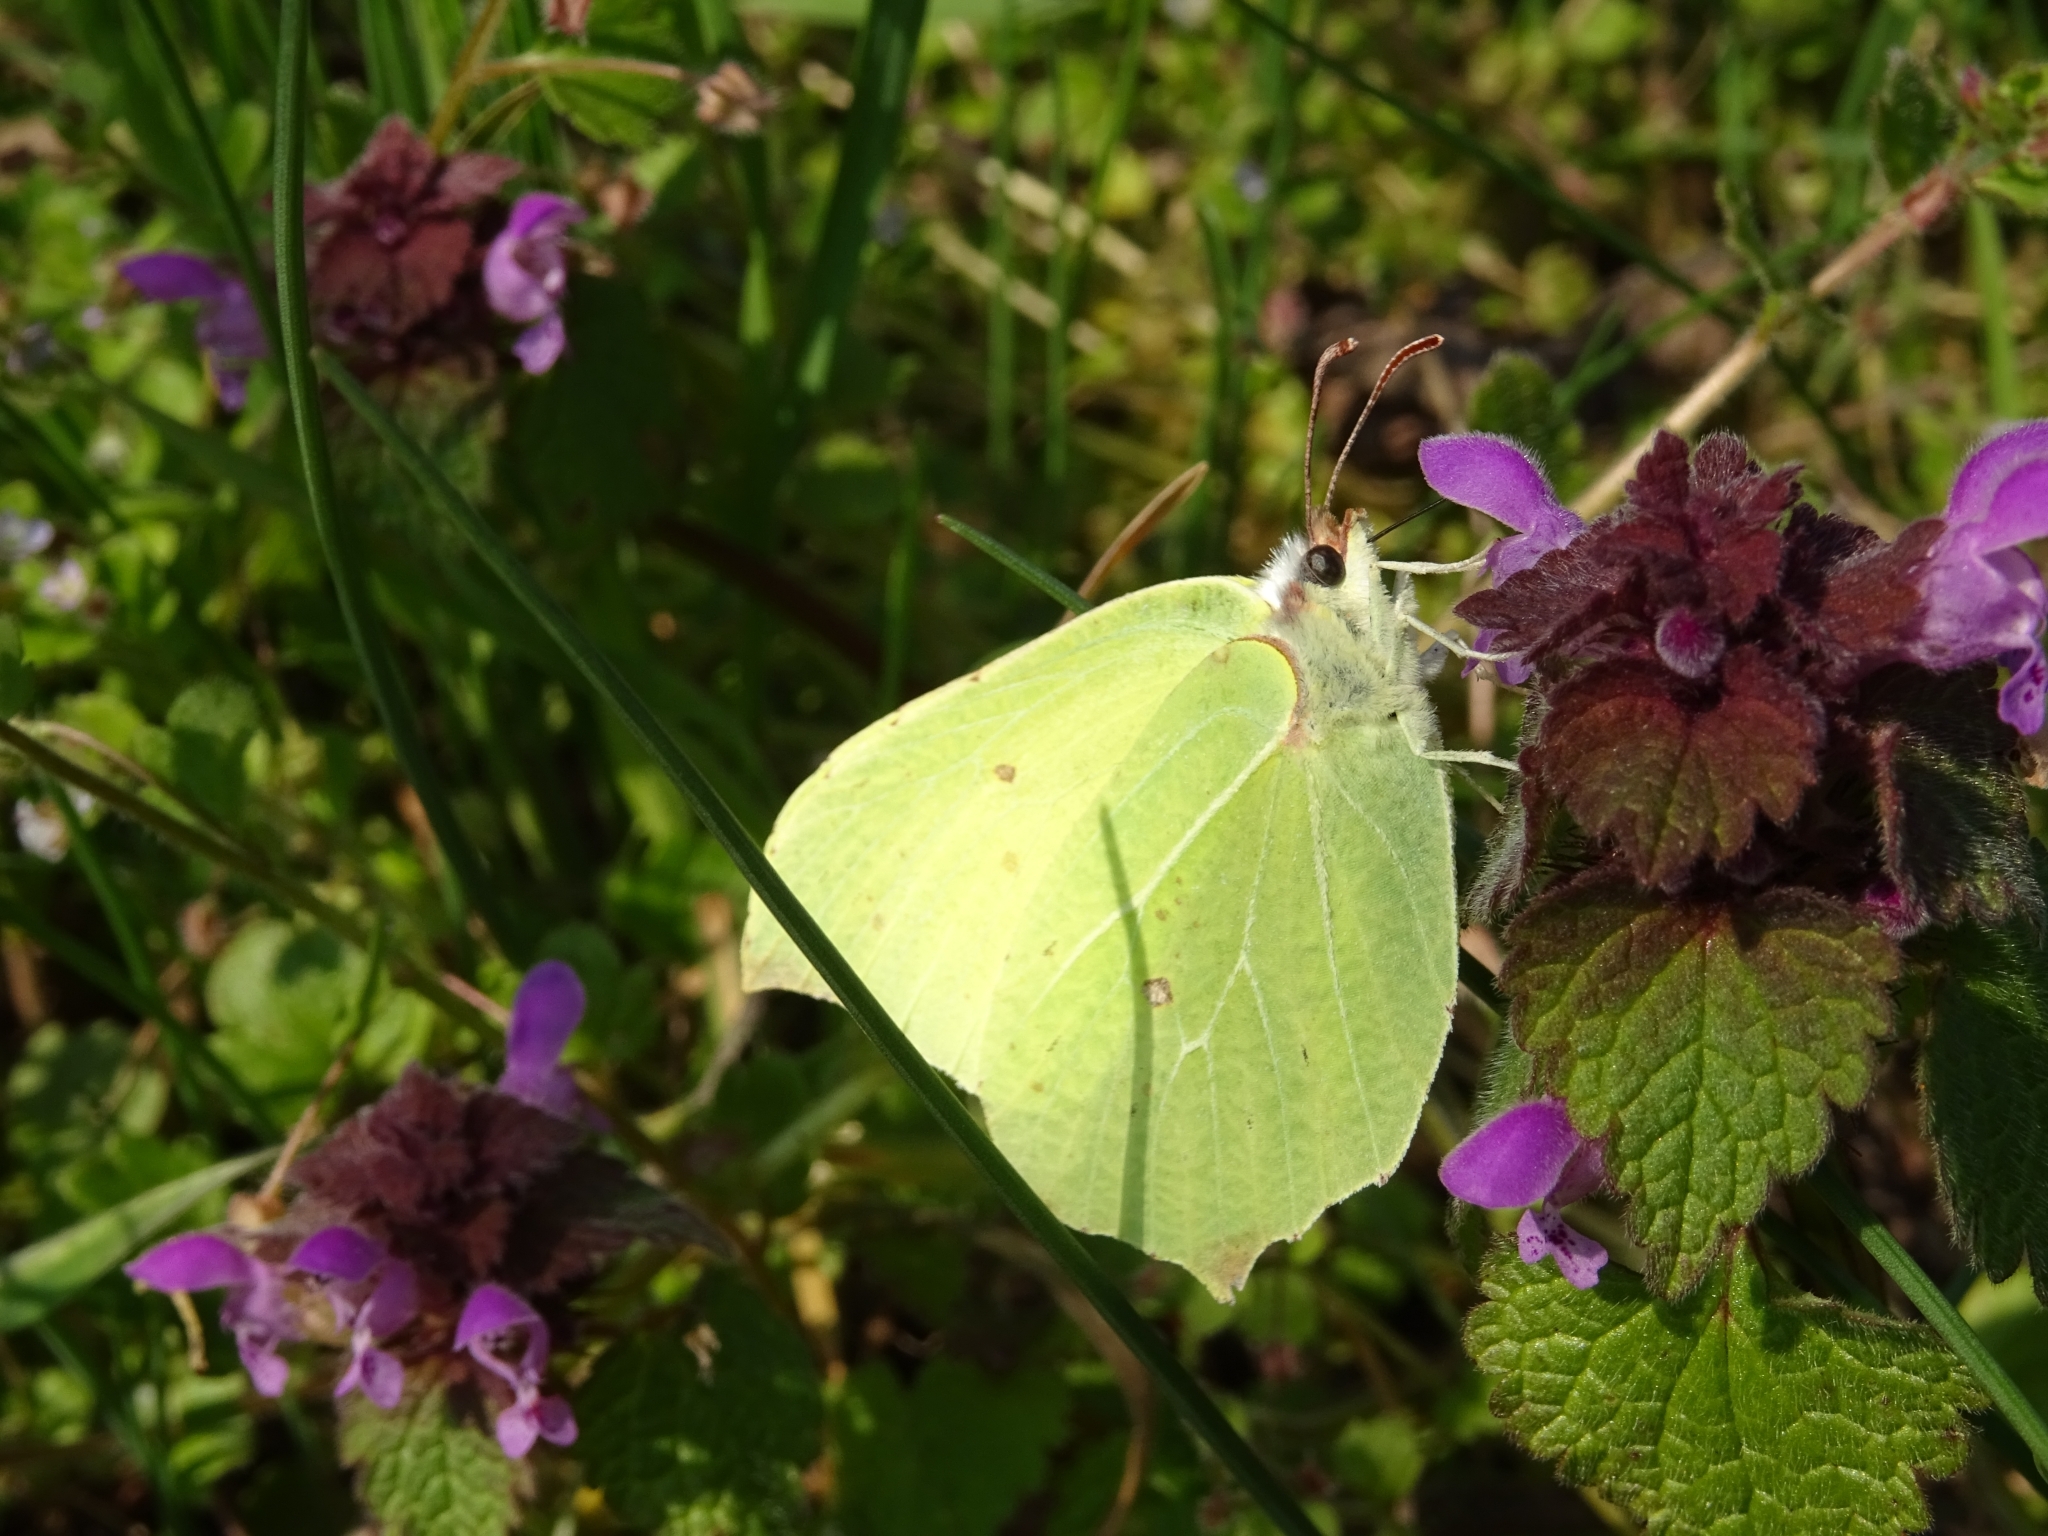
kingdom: Animalia
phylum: Arthropoda
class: Insecta
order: Lepidoptera
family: Pieridae
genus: Gonepteryx
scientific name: Gonepteryx rhamni
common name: Brimstone
